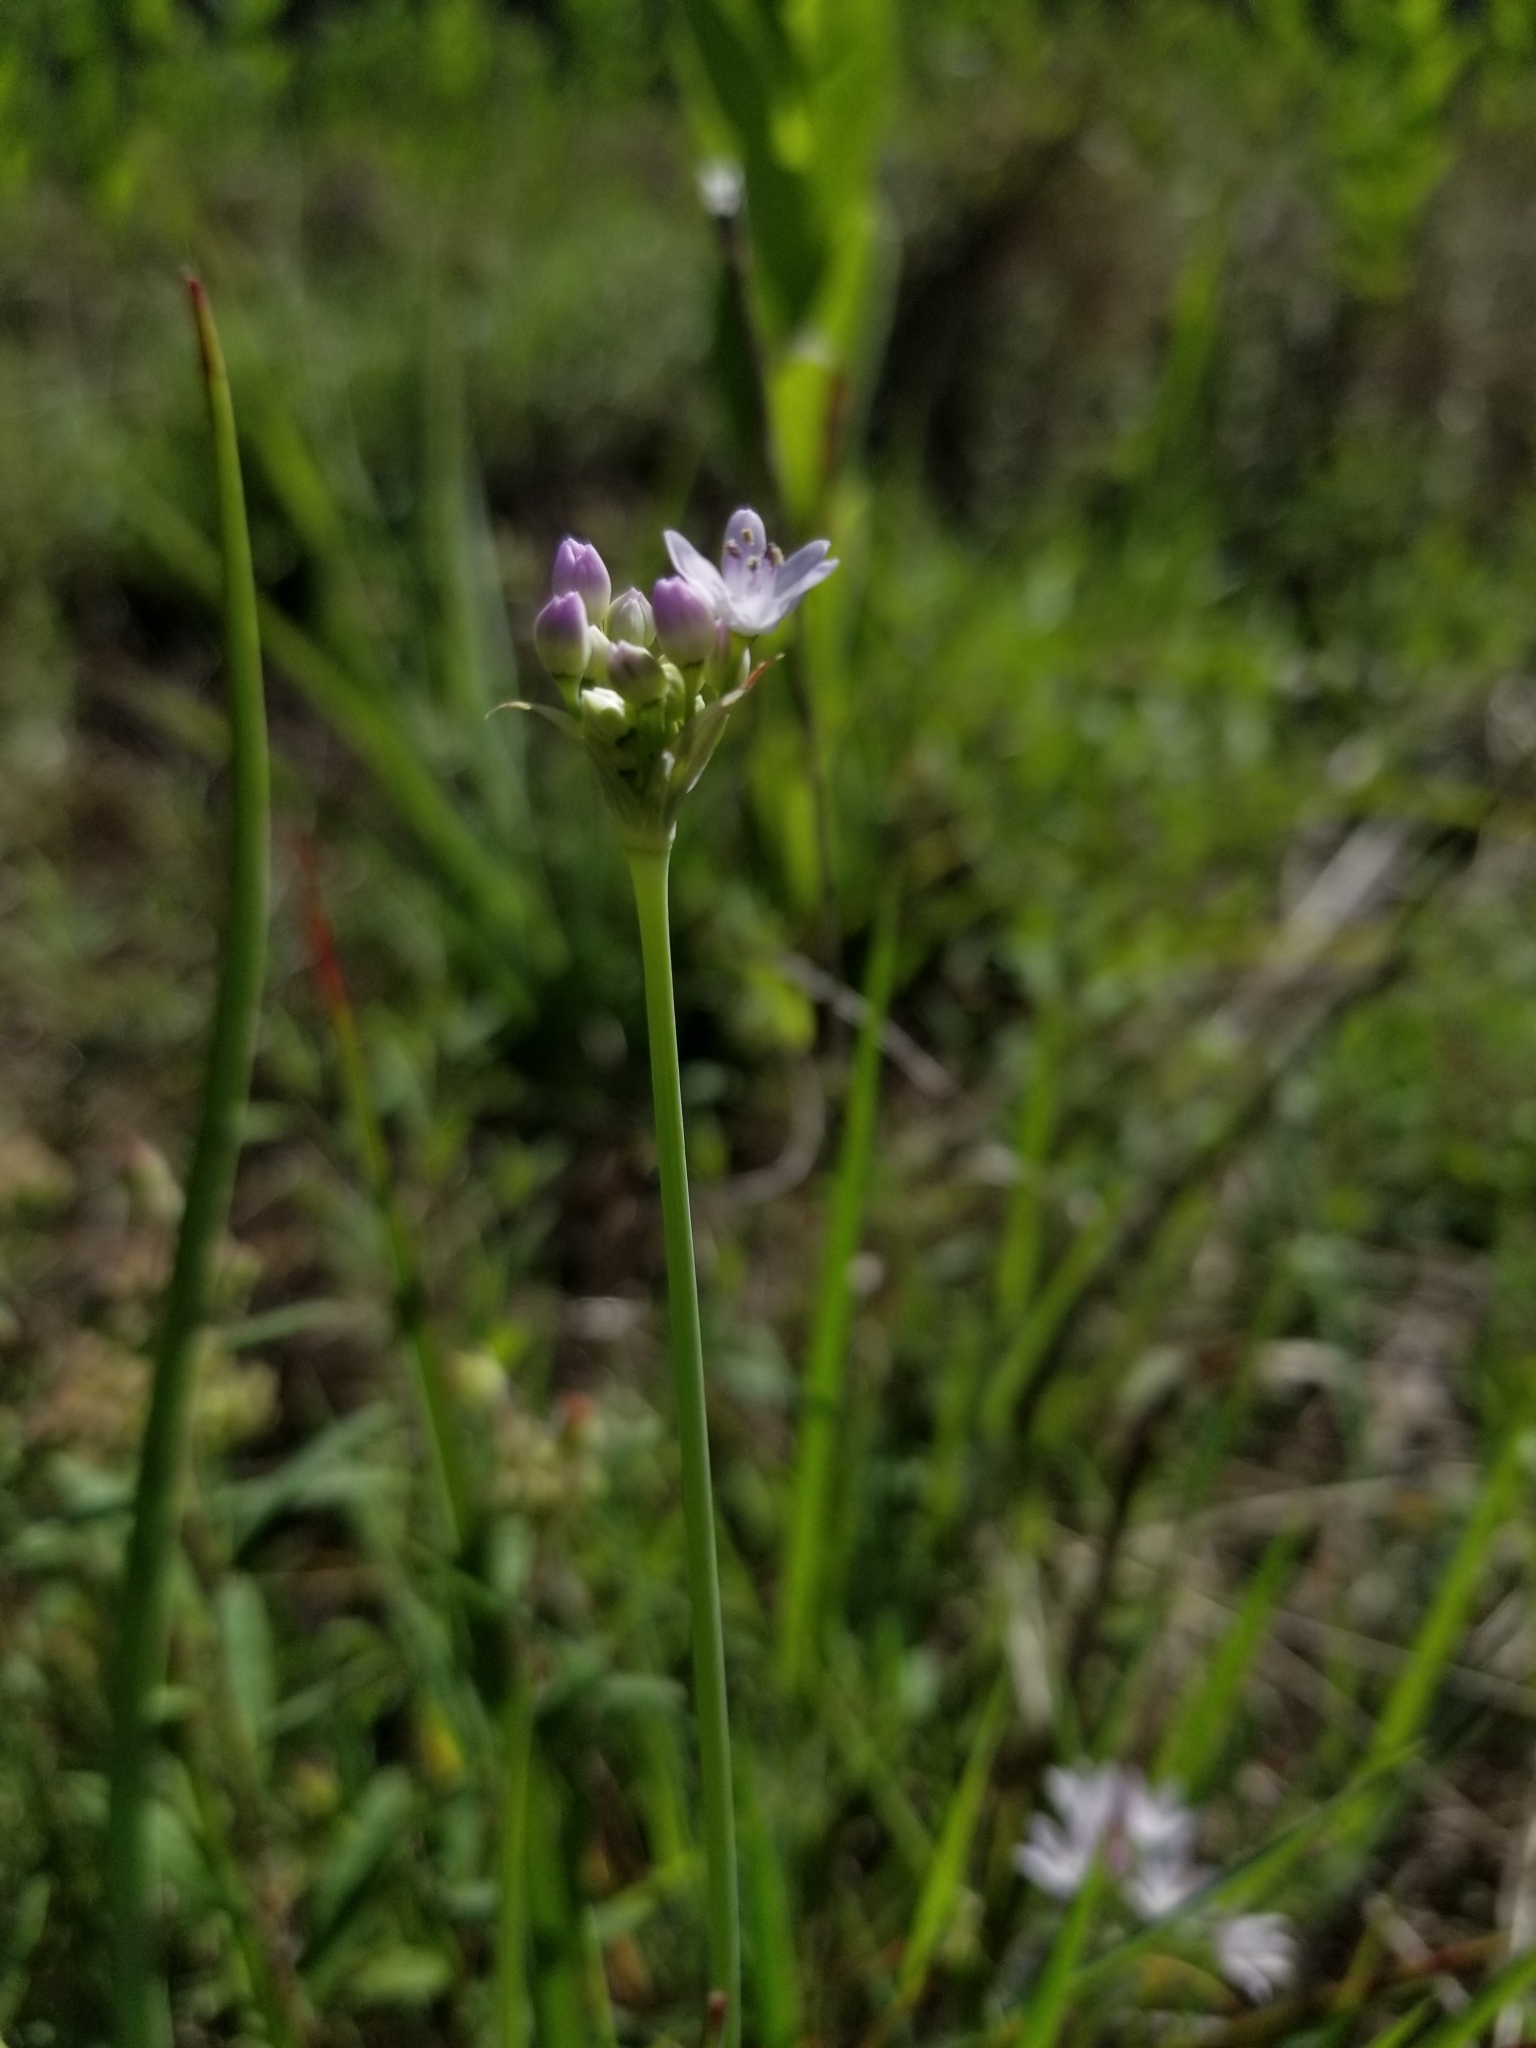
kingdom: Plantae
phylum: Tracheophyta
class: Liliopsida
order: Asparagales
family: Amaryllidaceae
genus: Allium
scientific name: Allium canadense
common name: Meadow garlic
